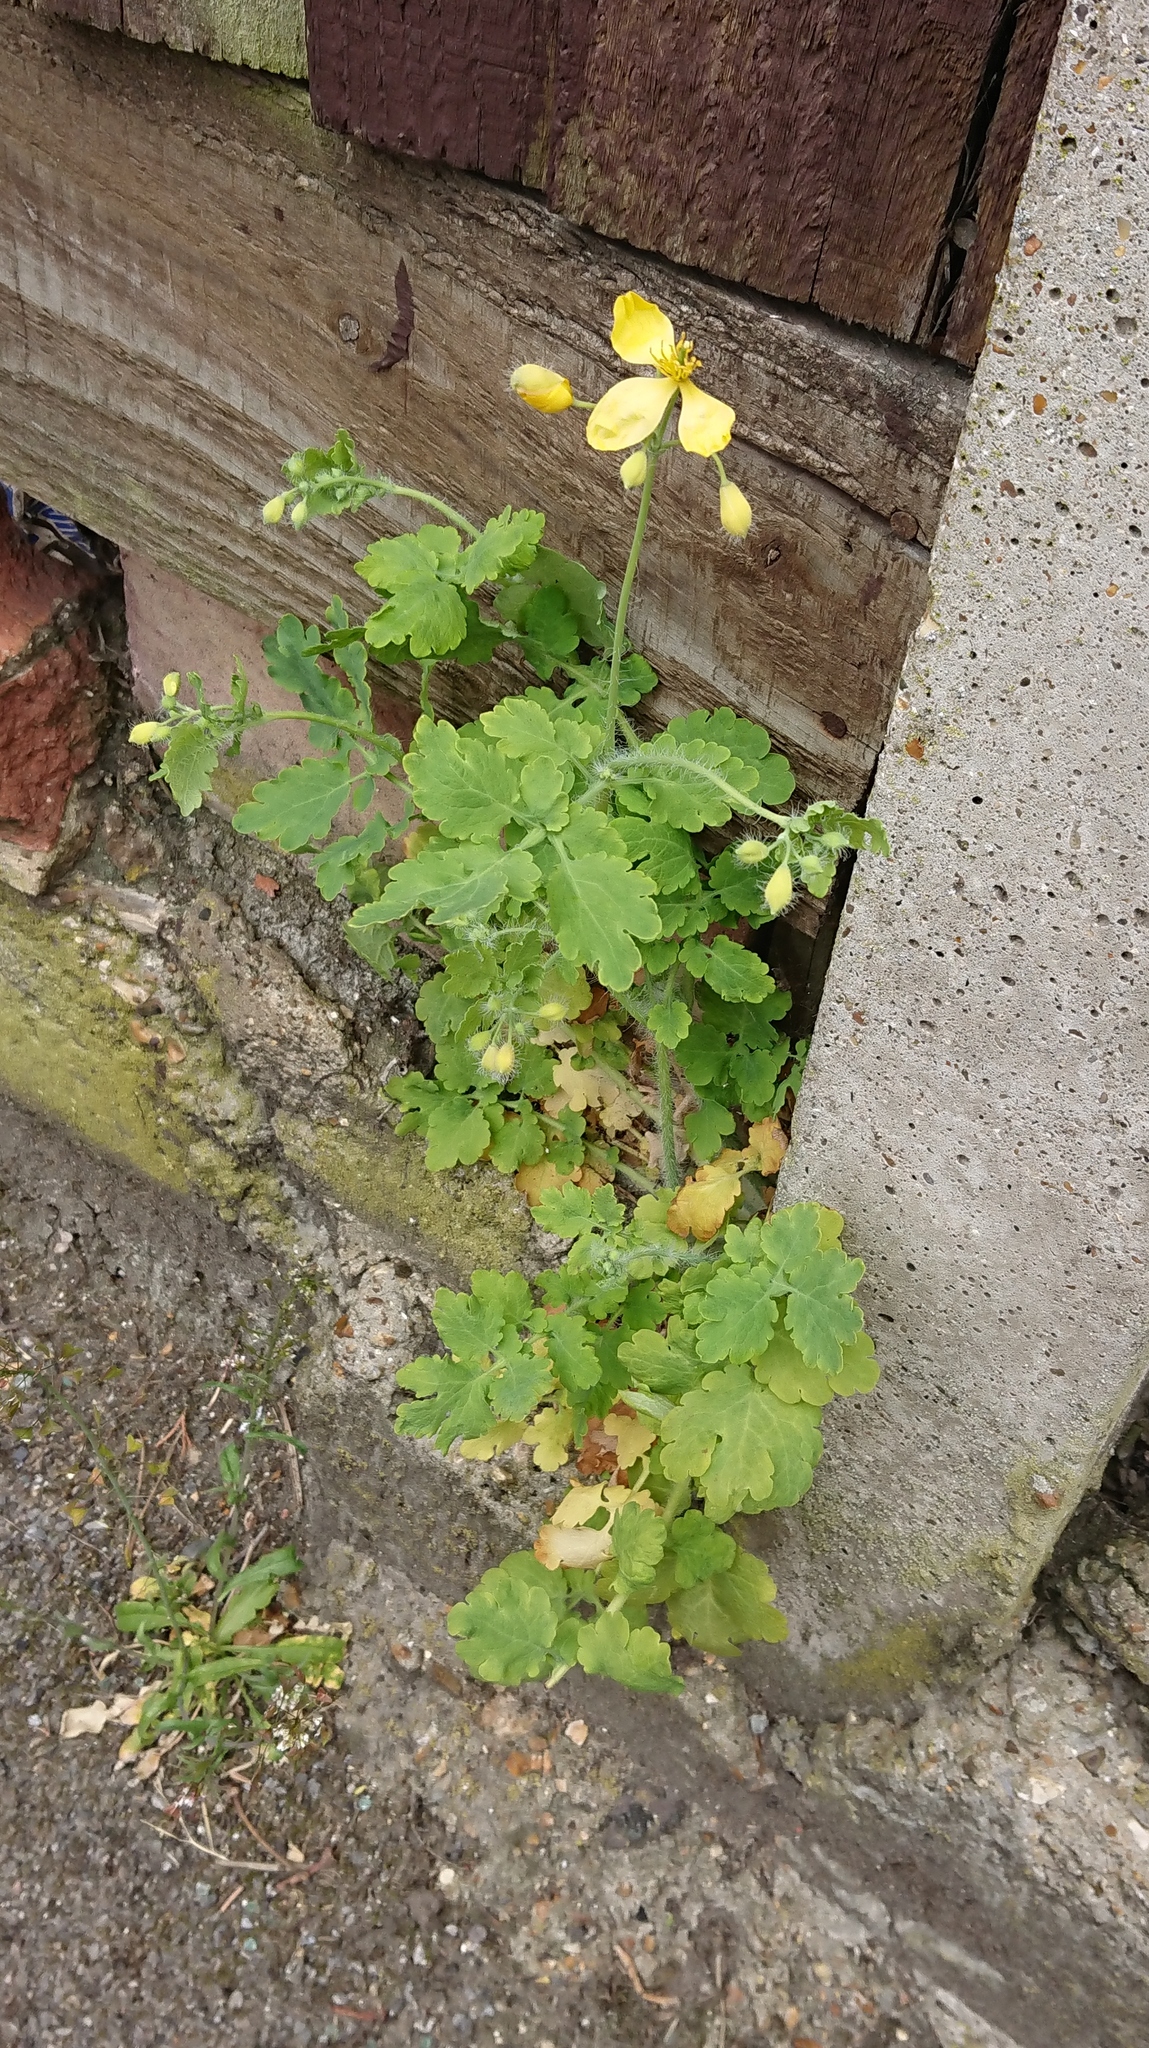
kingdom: Plantae
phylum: Tracheophyta
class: Magnoliopsida
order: Ranunculales
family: Papaveraceae
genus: Chelidonium
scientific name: Chelidonium majus
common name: Greater celandine
